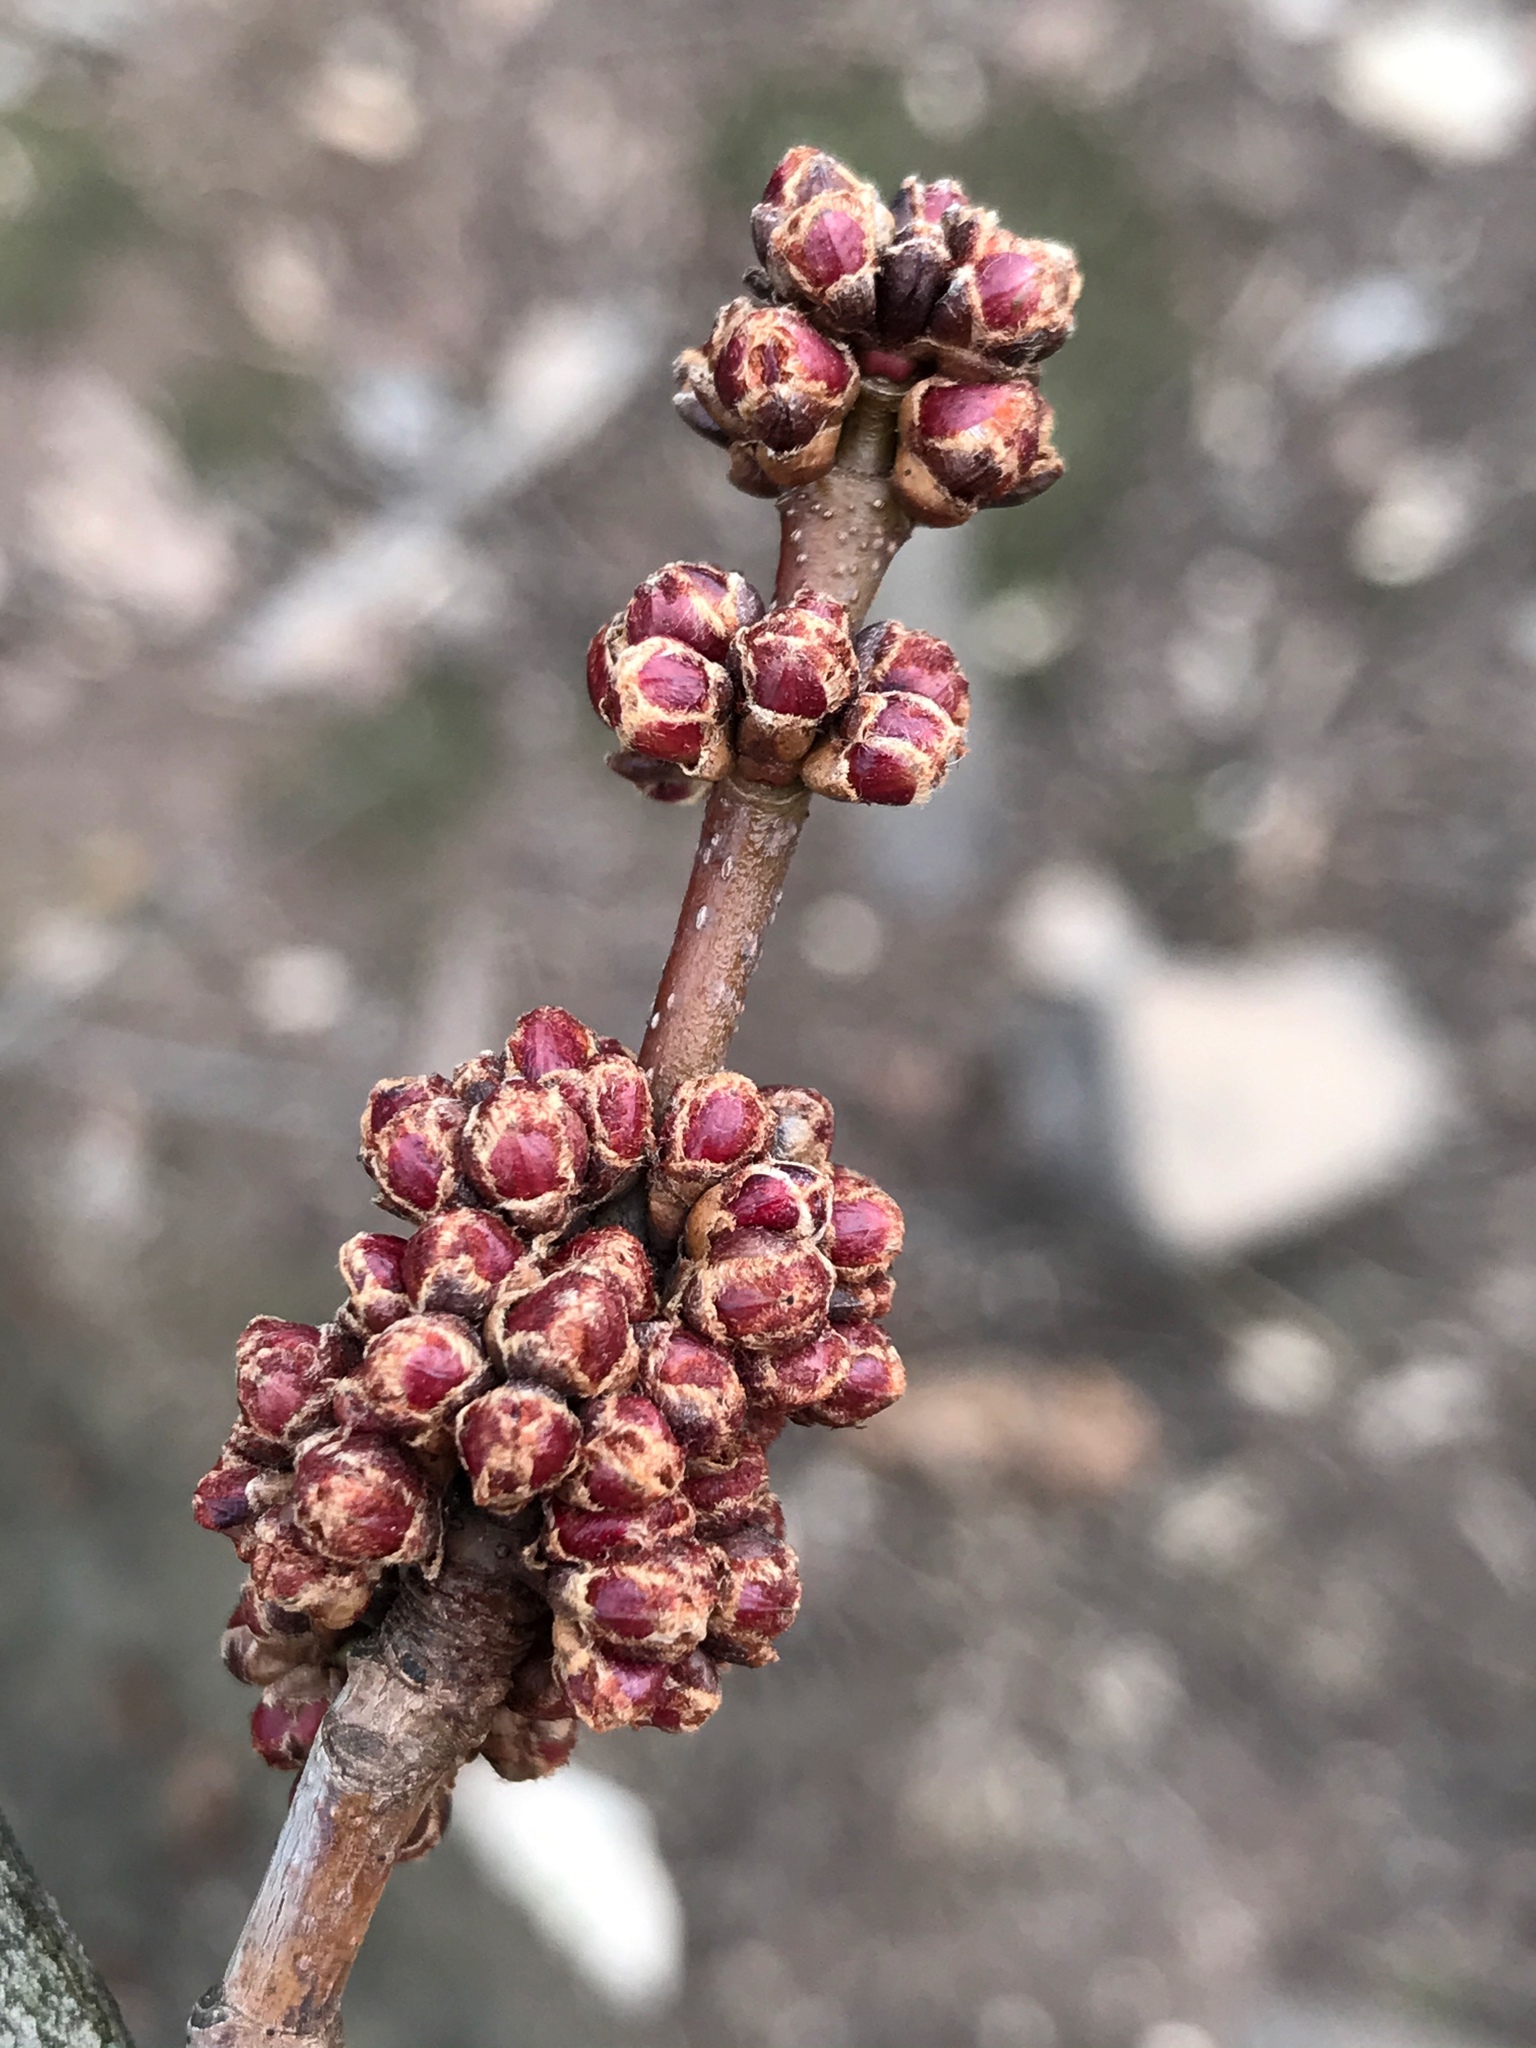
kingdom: Plantae
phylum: Tracheophyta
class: Magnoliopsida
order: Sapindales
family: Sapindaceae
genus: Acer
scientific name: Acer rubrum
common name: Red maple
